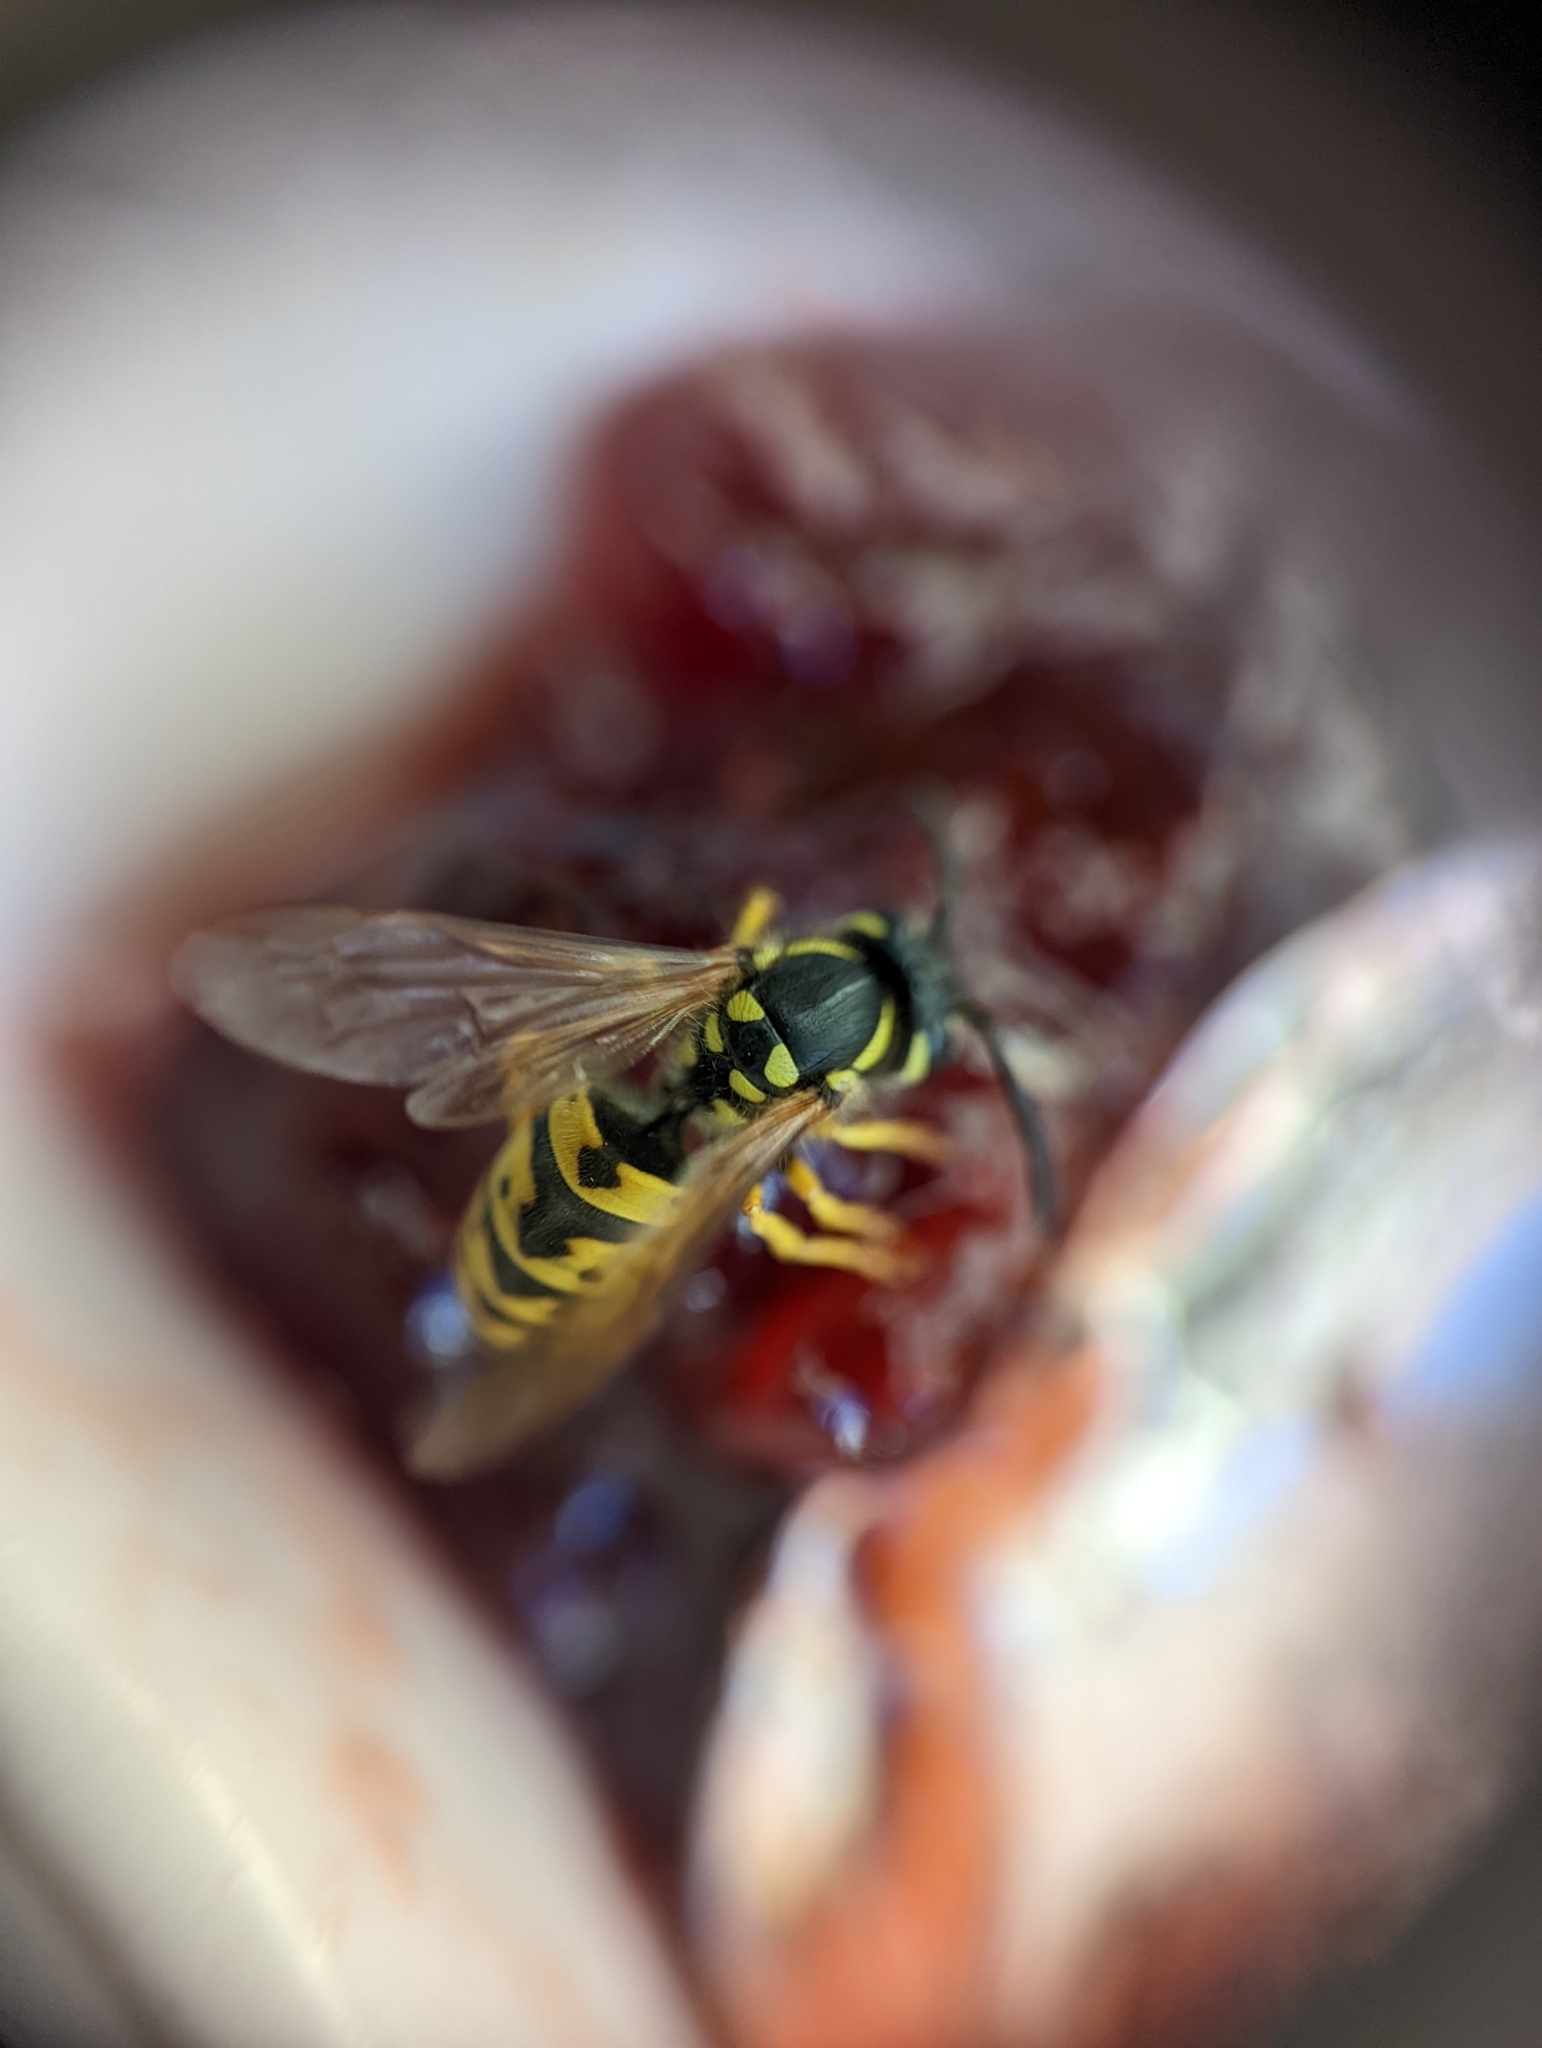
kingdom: Animalia
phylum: Arthropoda
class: Insecta
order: Hymenoptera
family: Vespidae
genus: Vespula
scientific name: Vespula germanica
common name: German wasp
